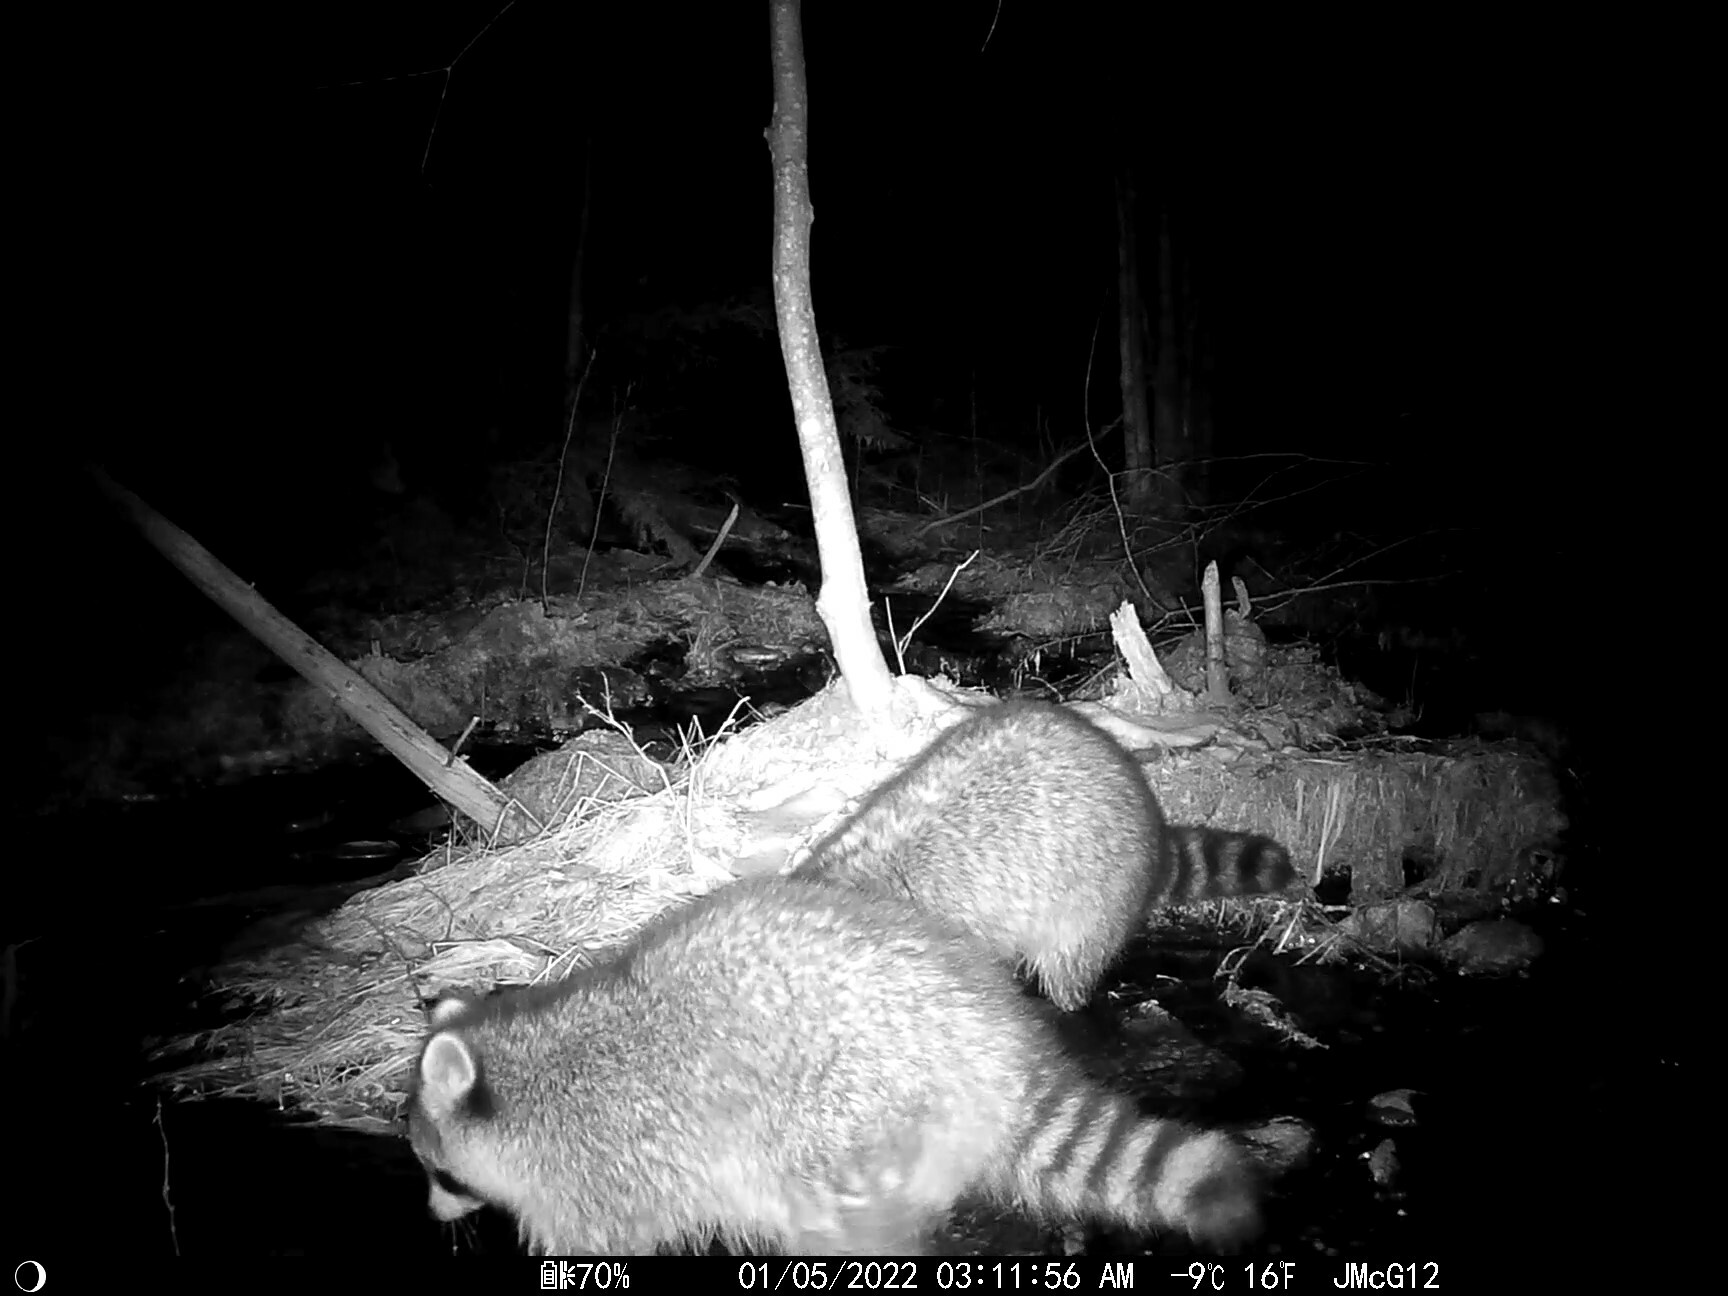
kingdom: Animalia
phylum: Chordata
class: Mammalia
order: Carnivora
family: Procyonidae
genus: Procyon
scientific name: Procyon lotor
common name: Raccoon
